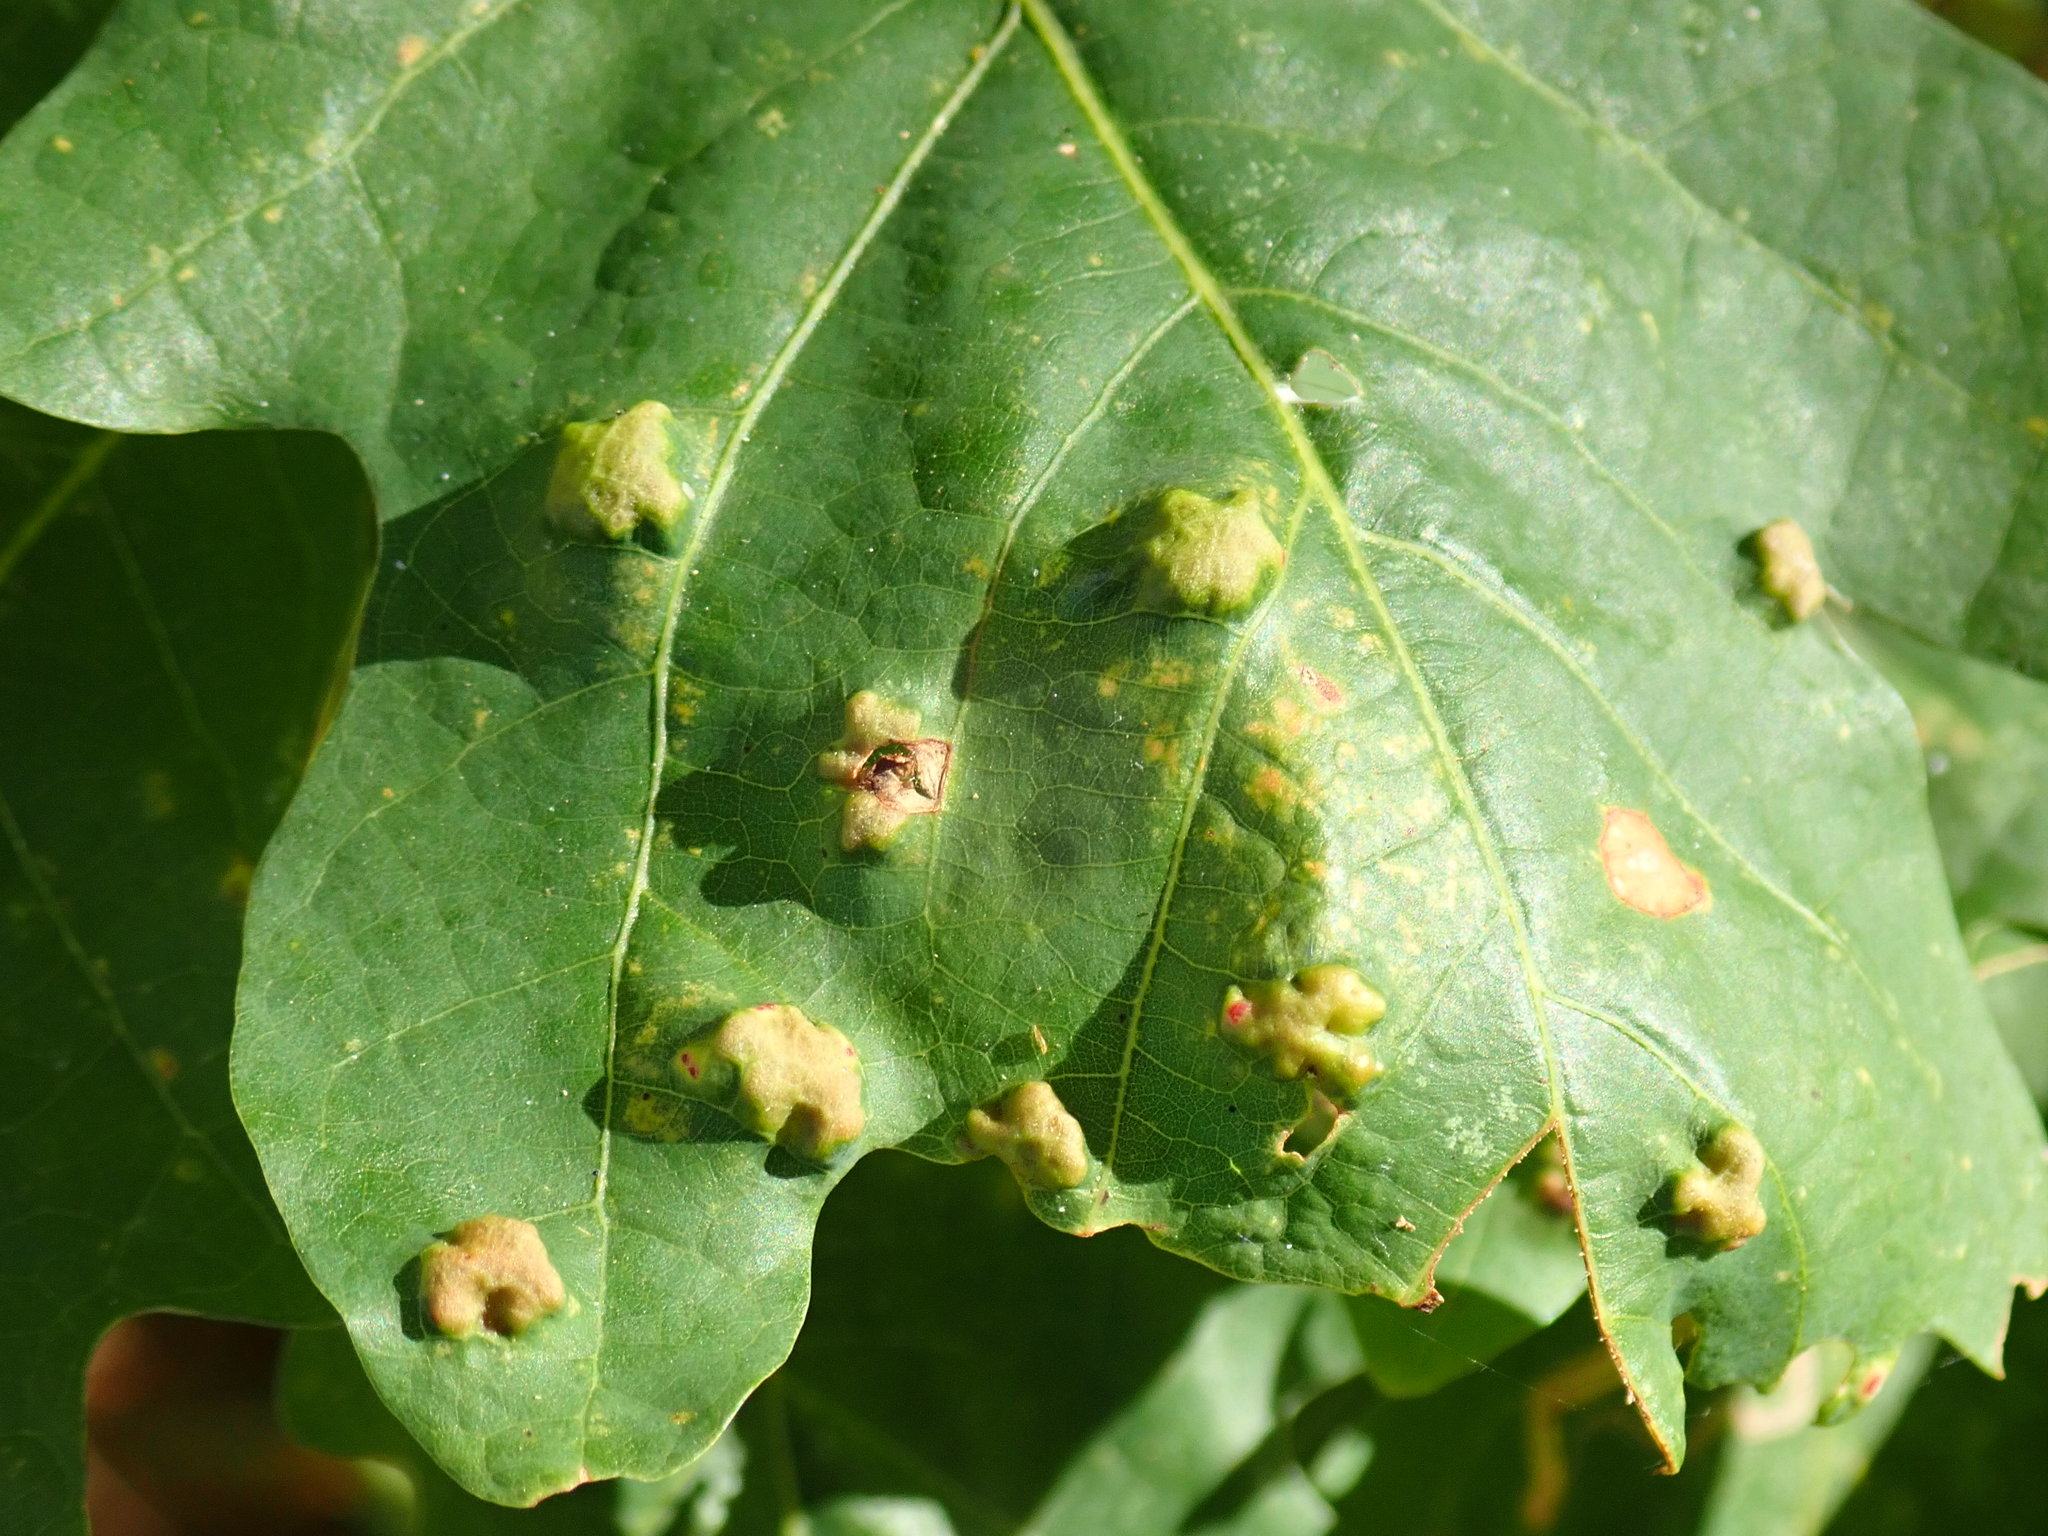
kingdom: Animalia
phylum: Arthropoda
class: Arachnida
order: Trombidiformes
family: Eriophyidae
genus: Aceria
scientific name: Aceria
